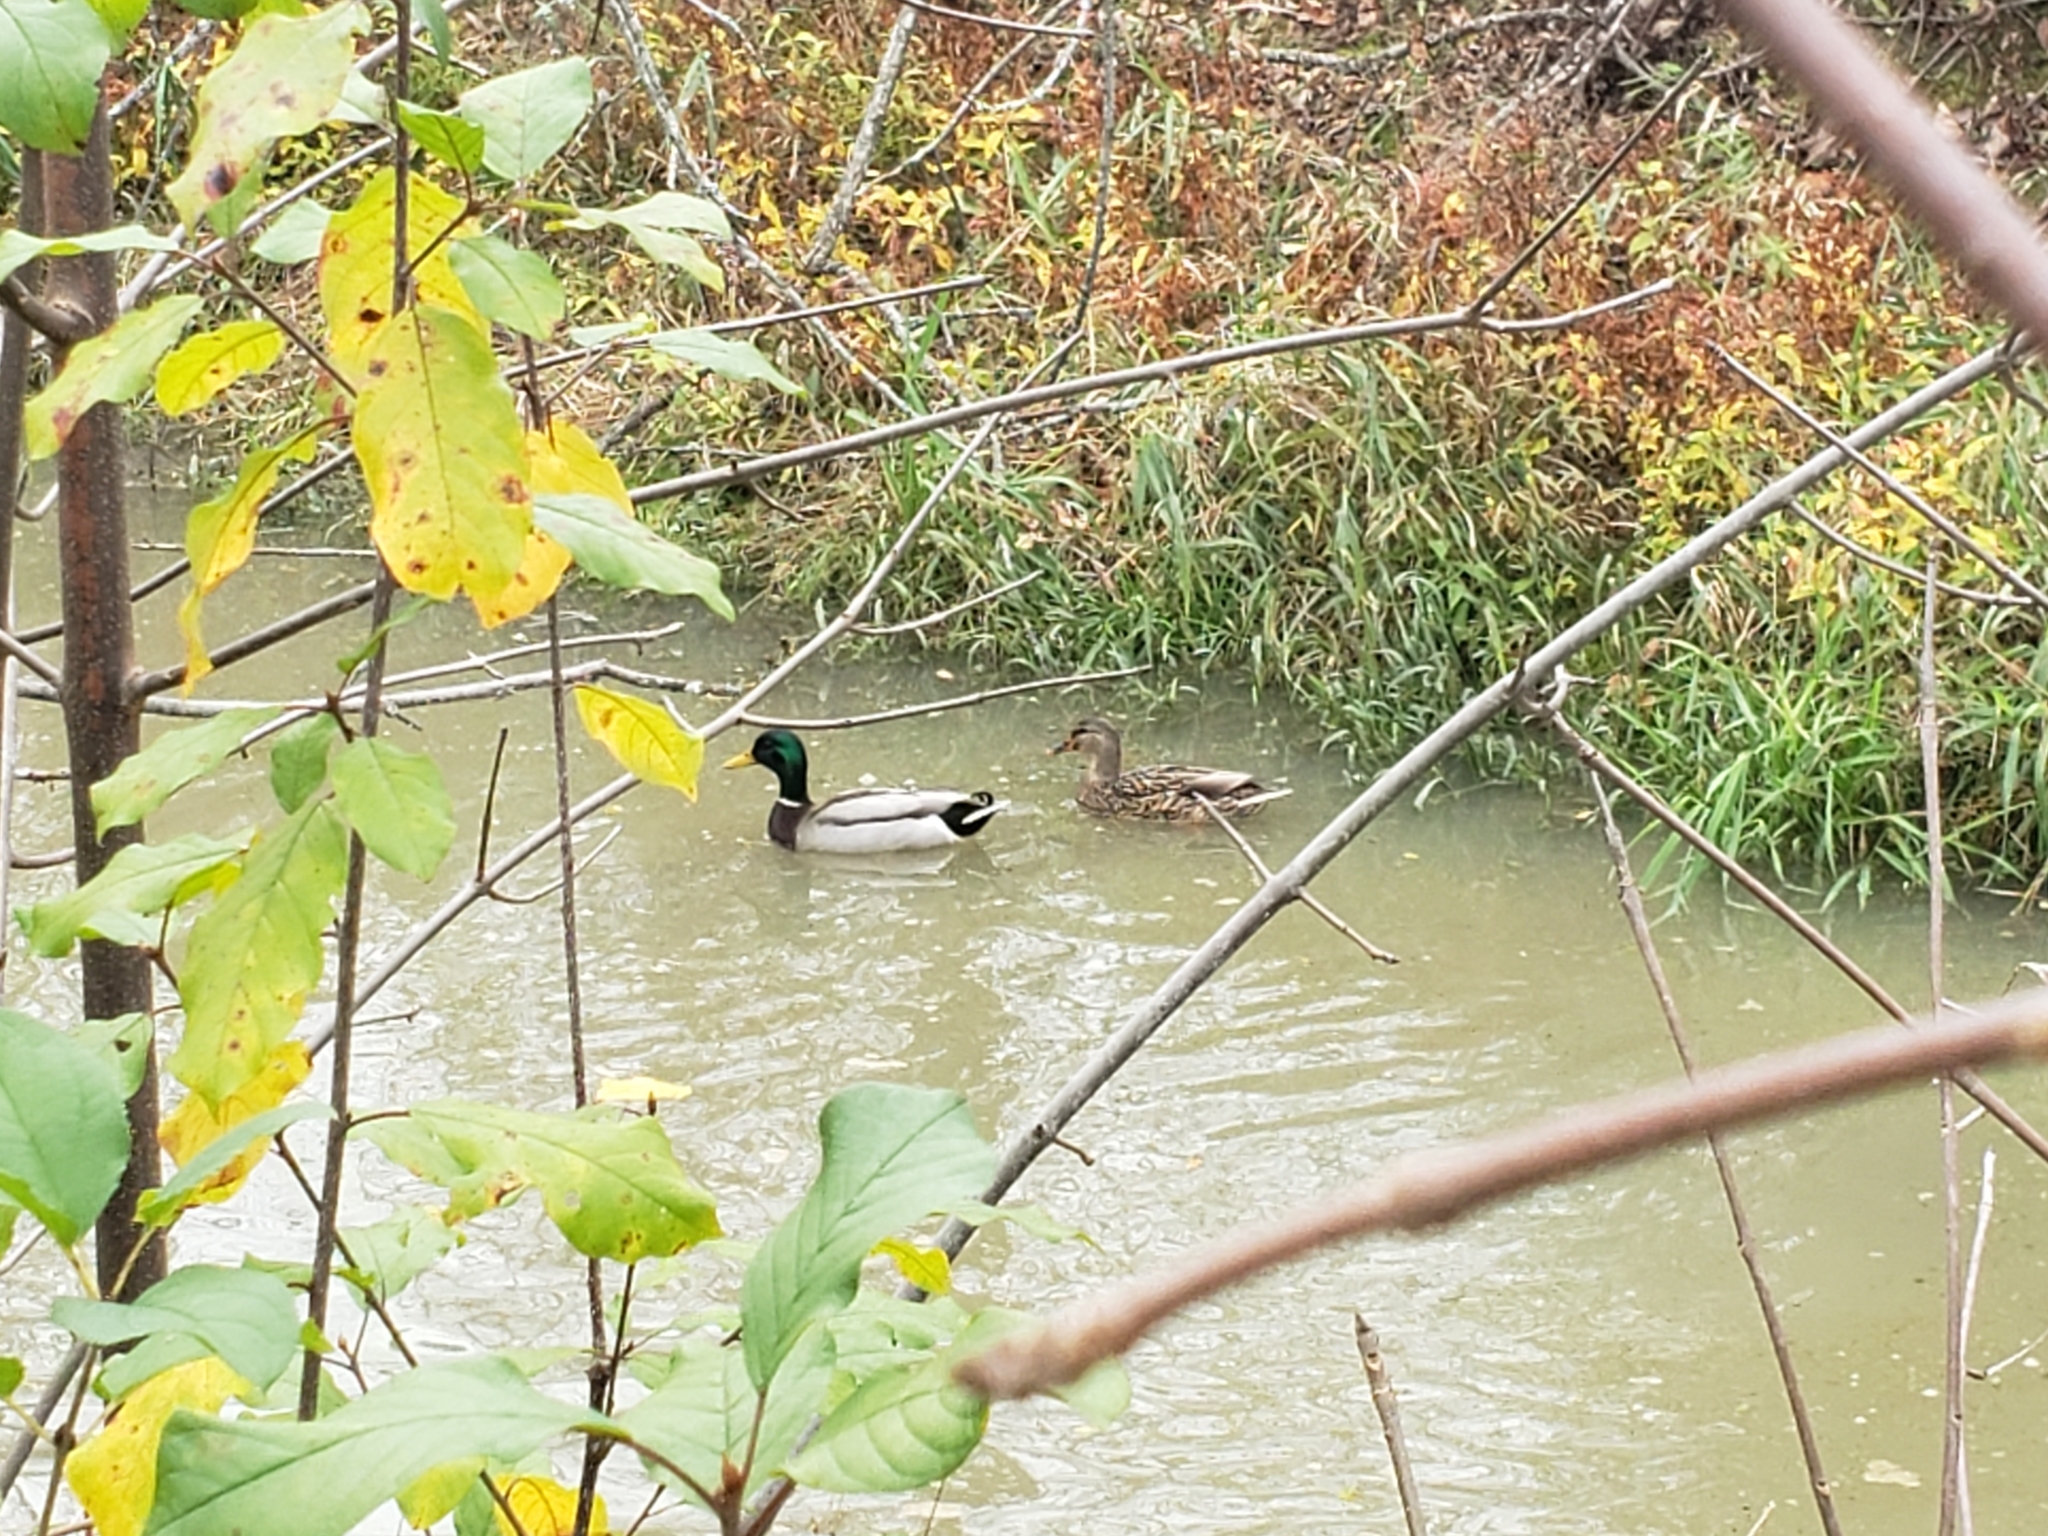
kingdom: Animalia
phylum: Chordata
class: Aves
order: Anseriformes
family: Anatidae
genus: Anas
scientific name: Anas platyrhynchos
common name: Mallard
